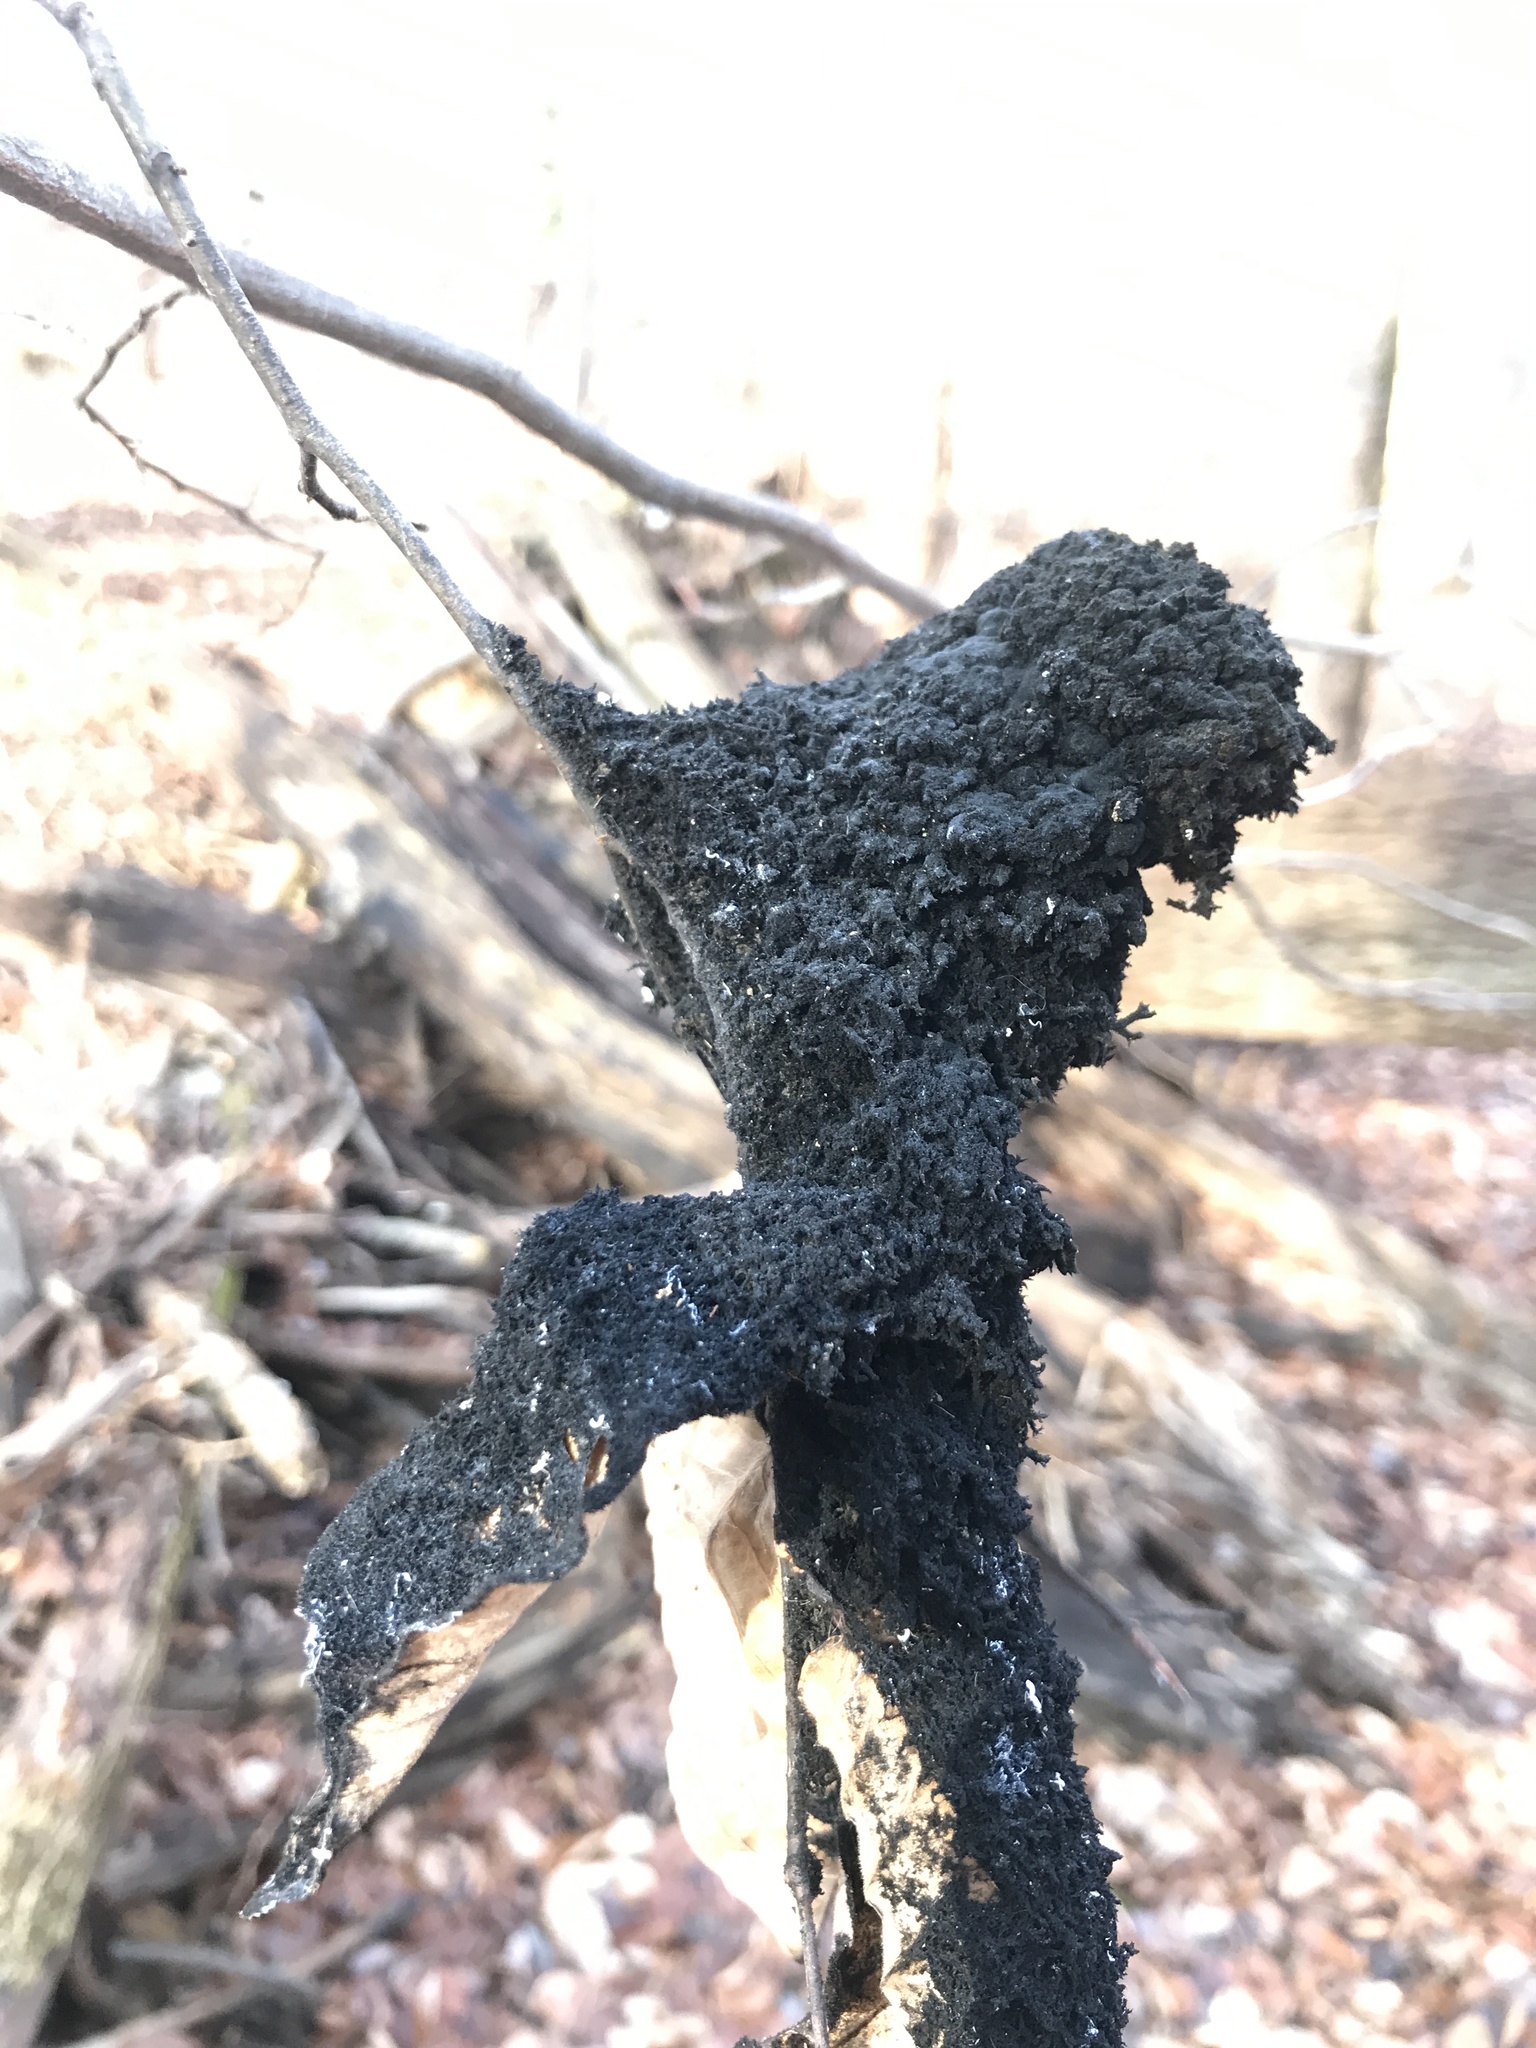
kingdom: Animalia
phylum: Arthropoda
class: Insecta
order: Hemiptera
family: Aphididae
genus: Grylloprociphilus
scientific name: Grylloprociphilus imbricator
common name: Beech blight aphid
